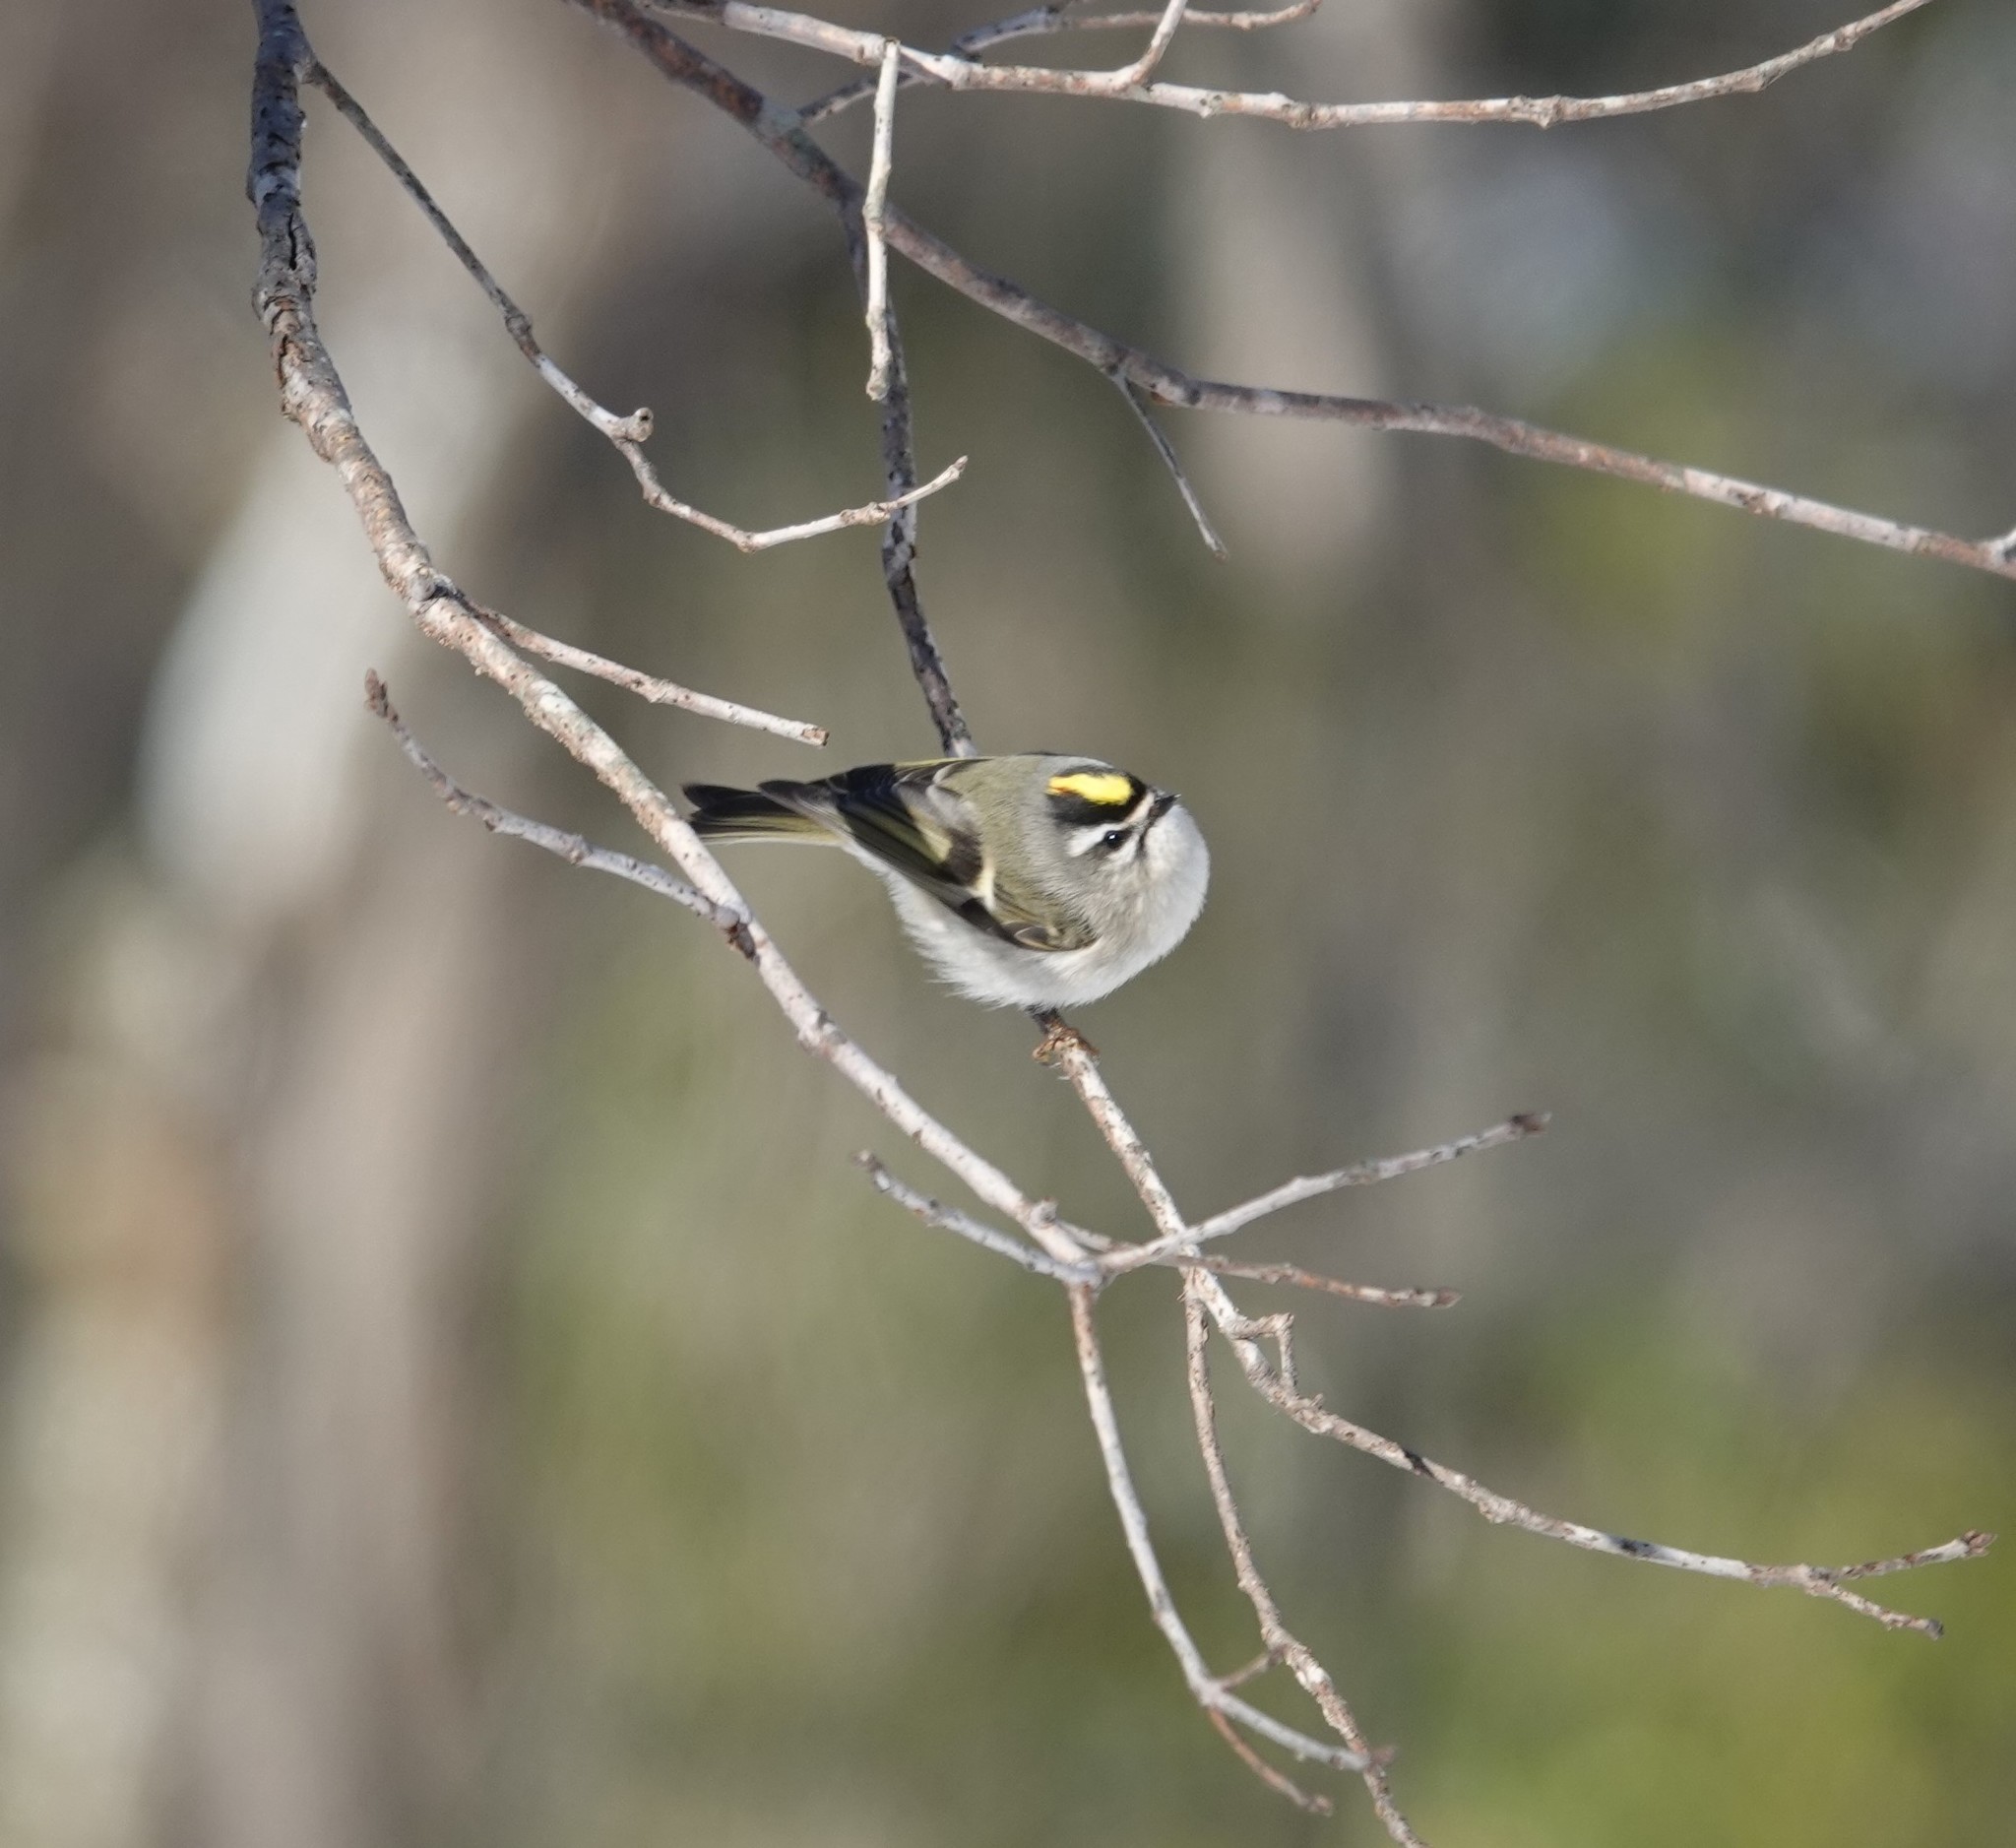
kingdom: Animalia
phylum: Chordata
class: Aves
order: Passeriformes
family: Regulidae
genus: Regulus
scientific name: Regulus satrapa
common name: Golden-crowned kinglet
